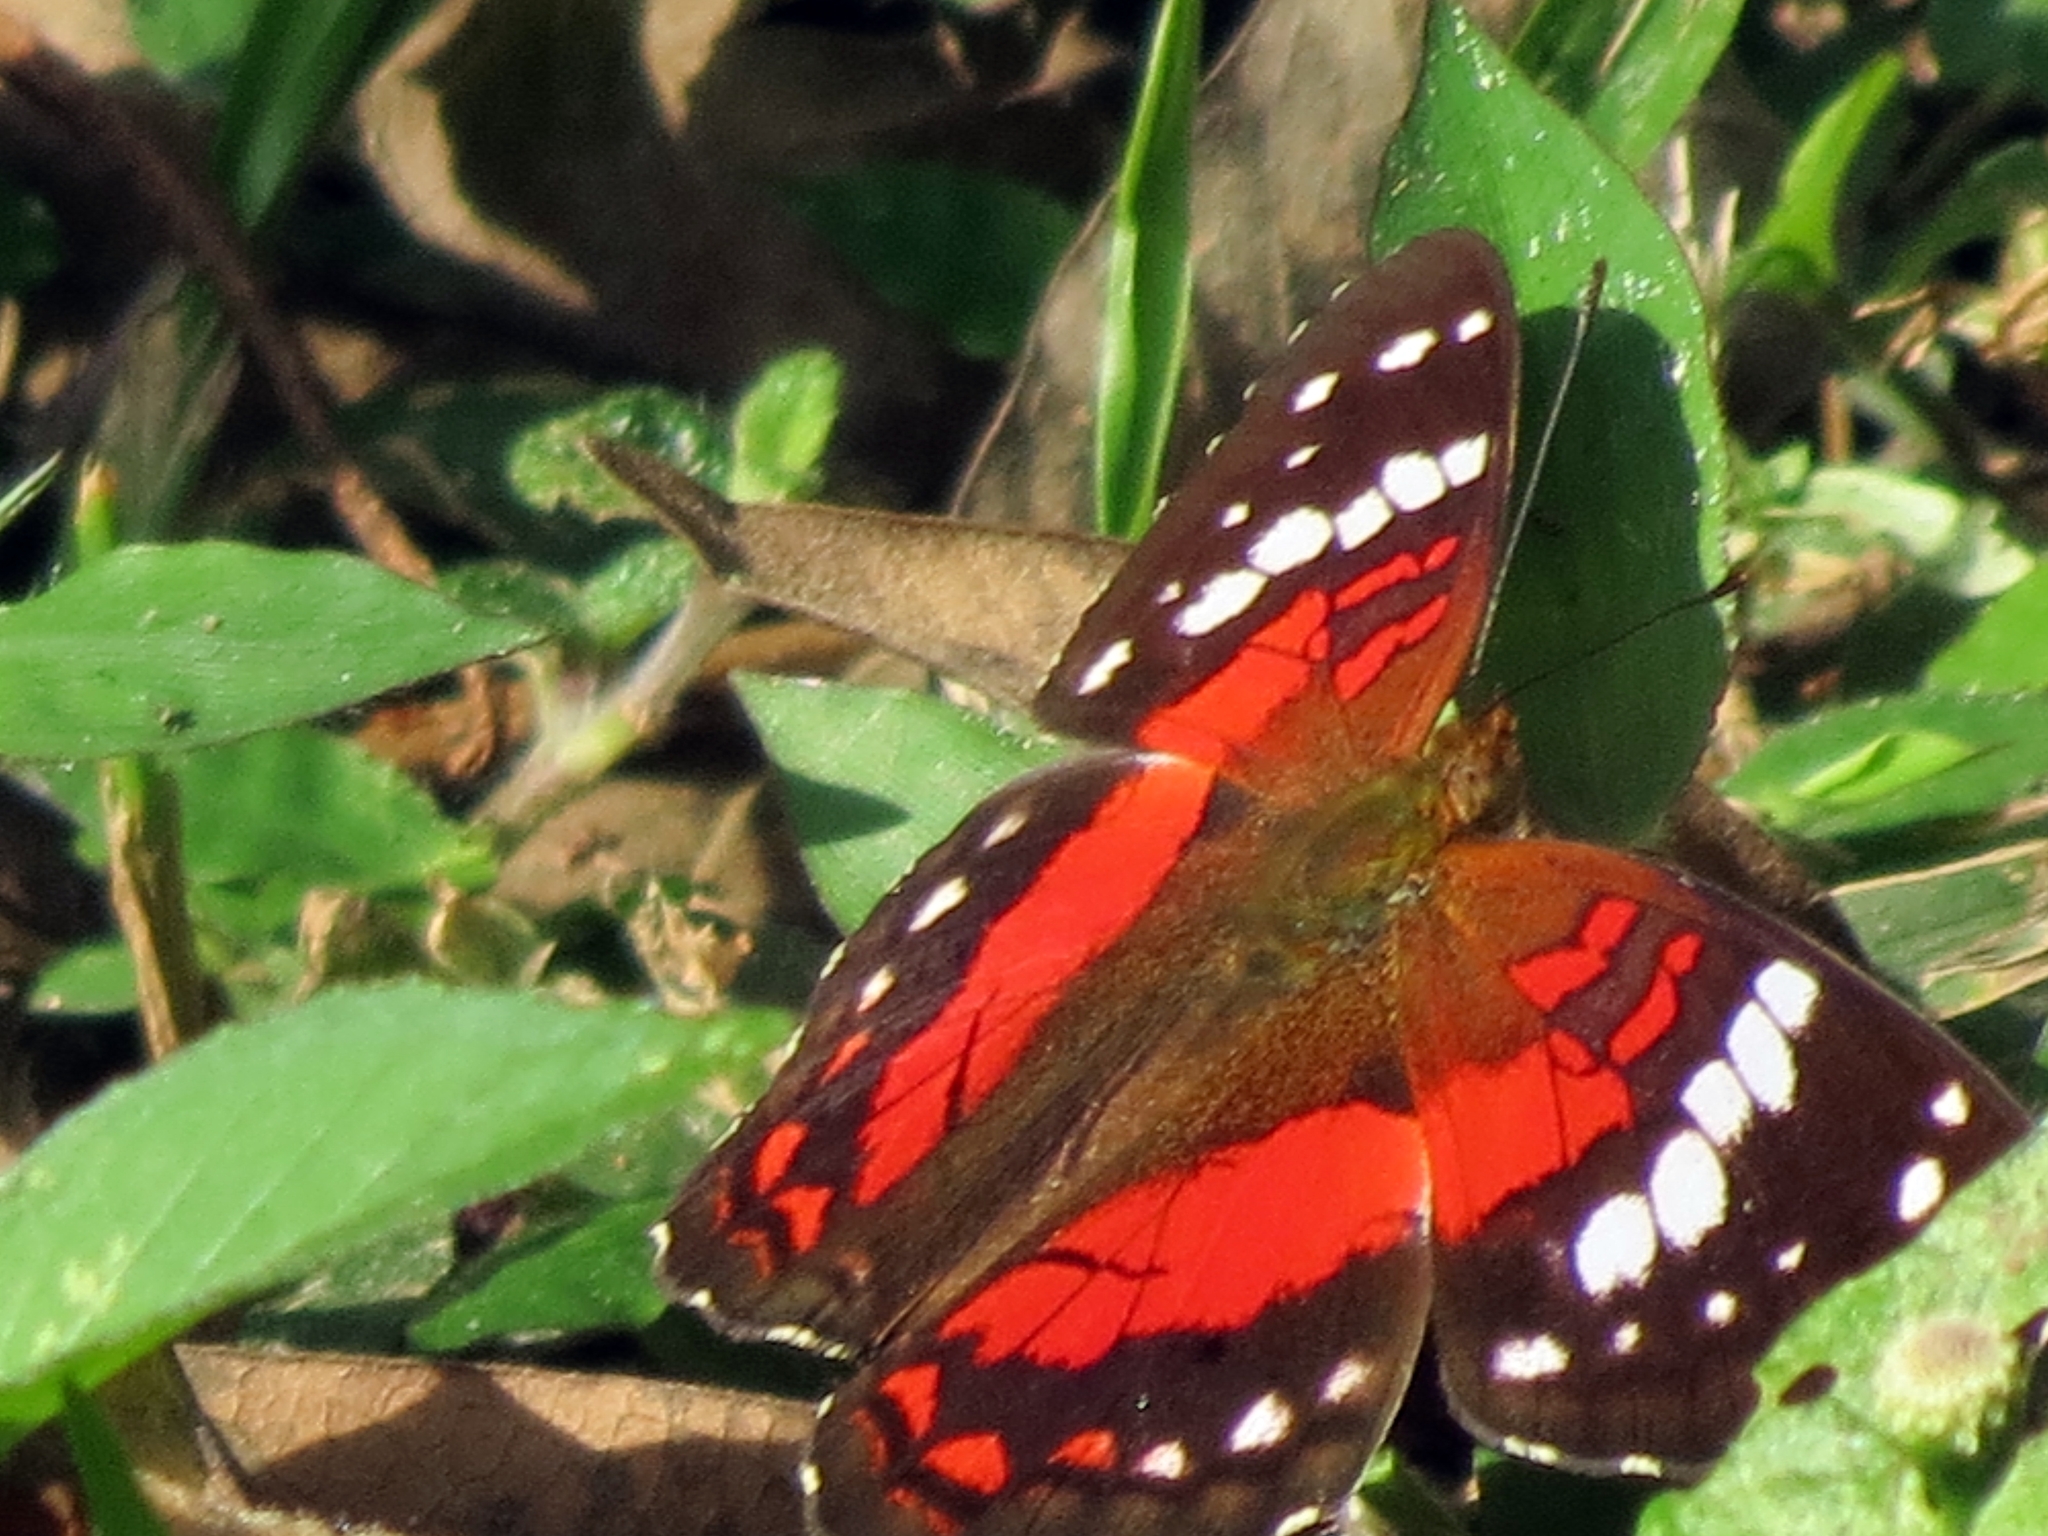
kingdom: Animalia
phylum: Arthropoda
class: Insecta
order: Lepidoptera
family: Nymphalidae
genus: Anartia
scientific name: Anartia amathea
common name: Red peacock
